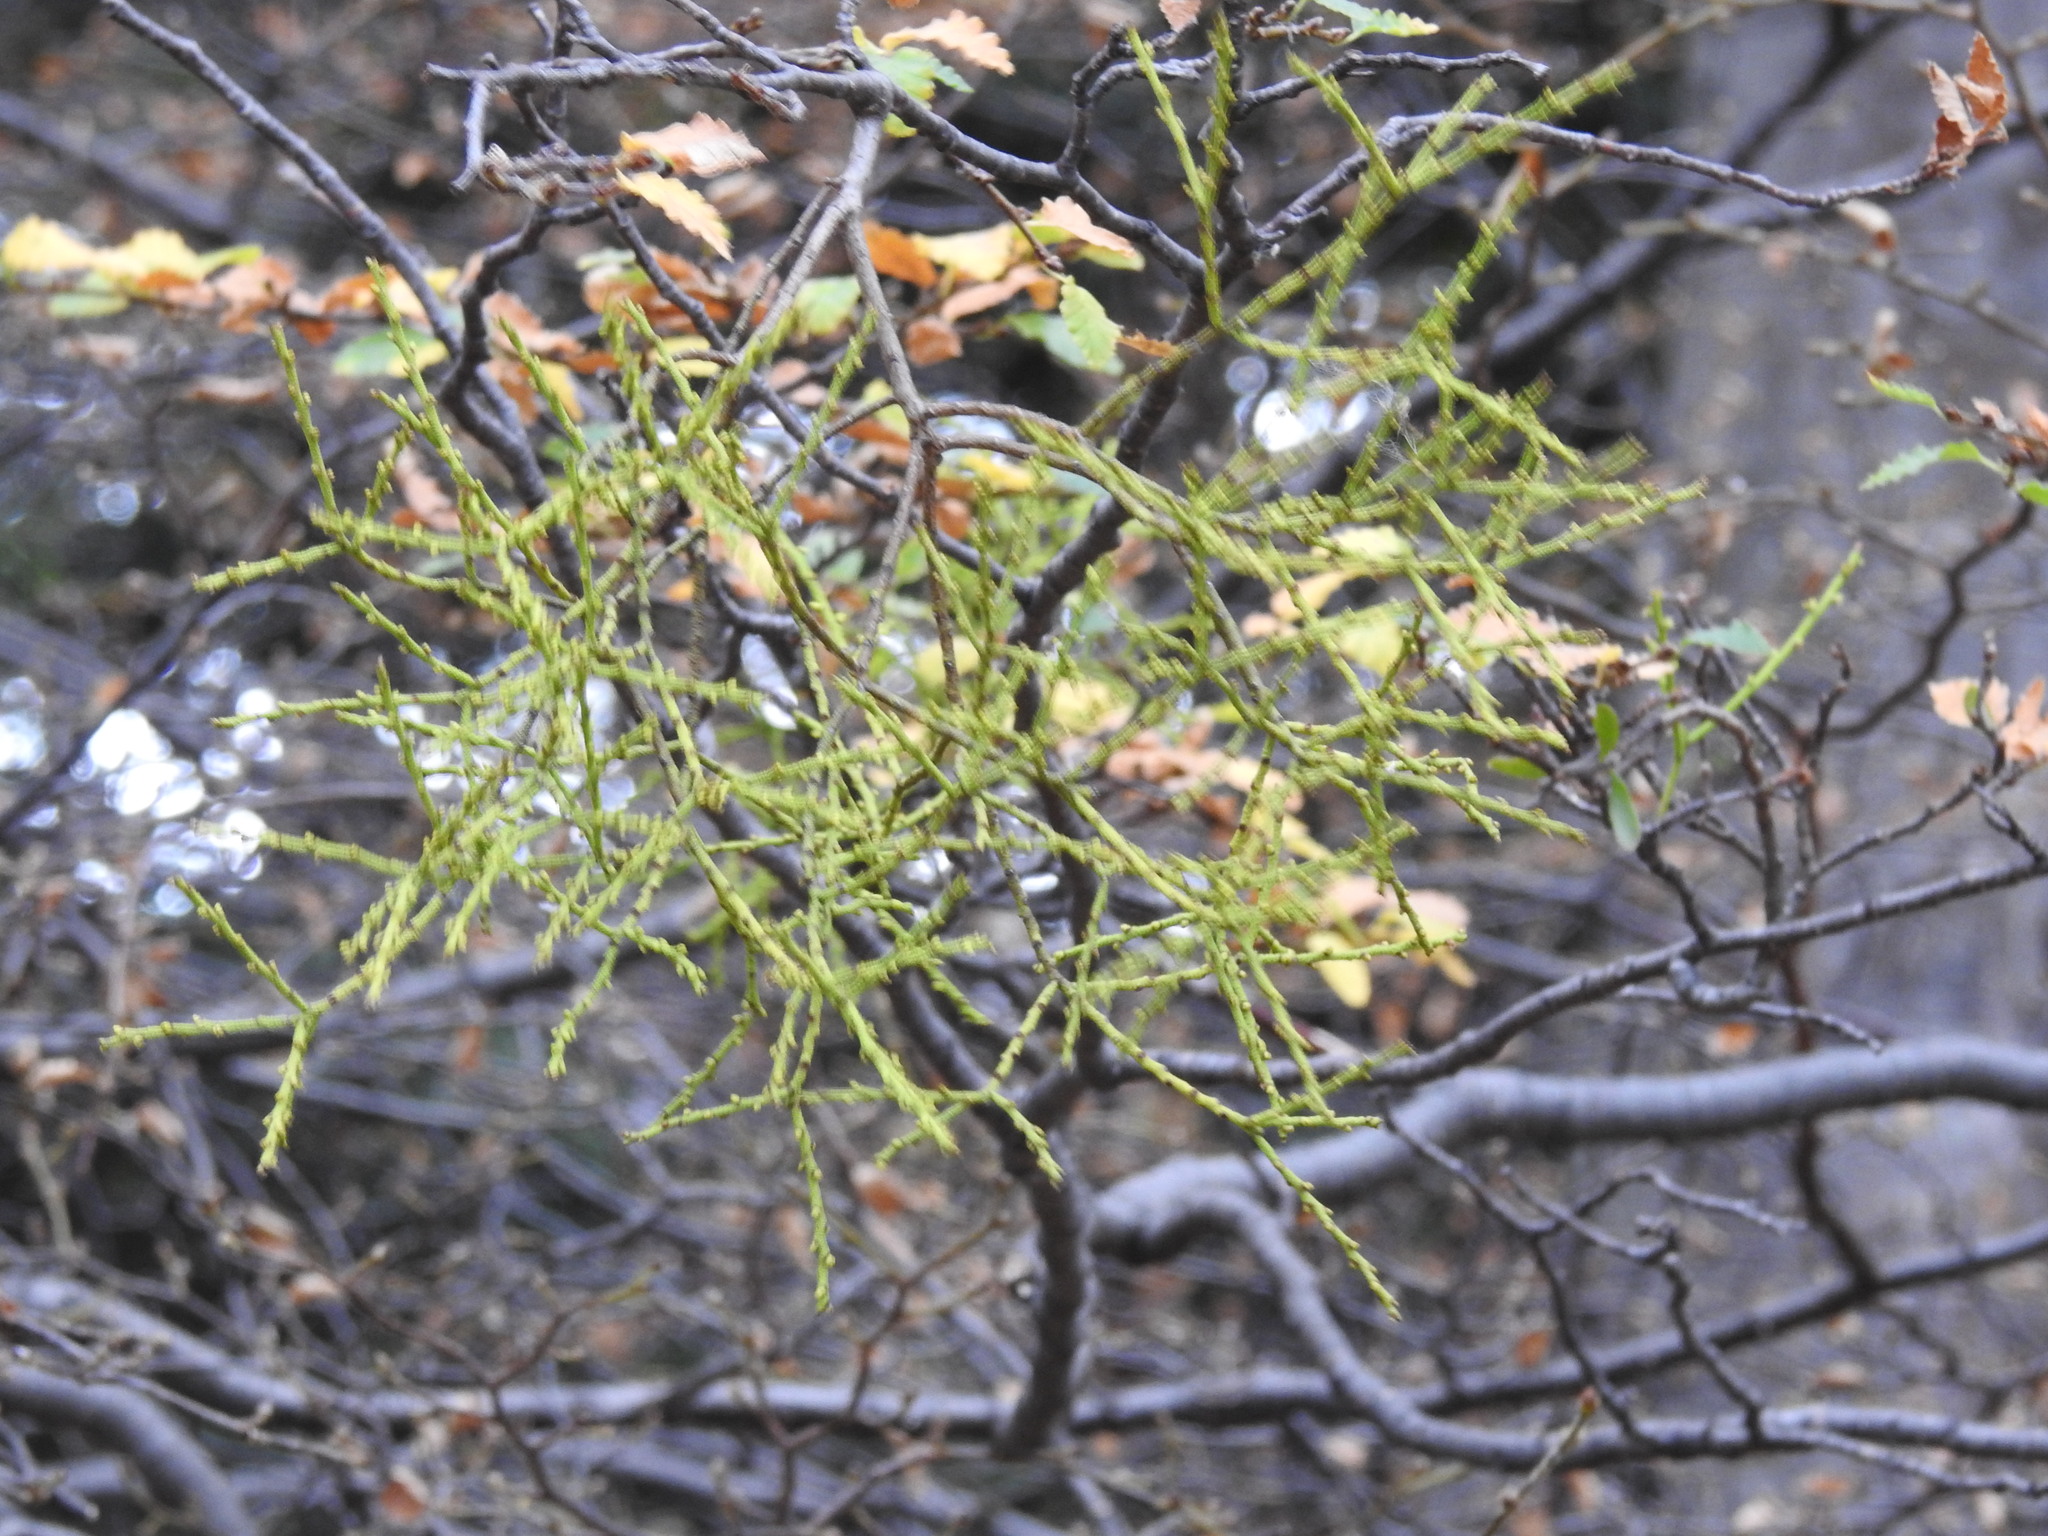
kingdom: Plantae
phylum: Tracheophyta
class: Magnoliopsida
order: Santalales
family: Misodendraceae
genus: Misodendrum
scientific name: Misodendrum punctulatum
